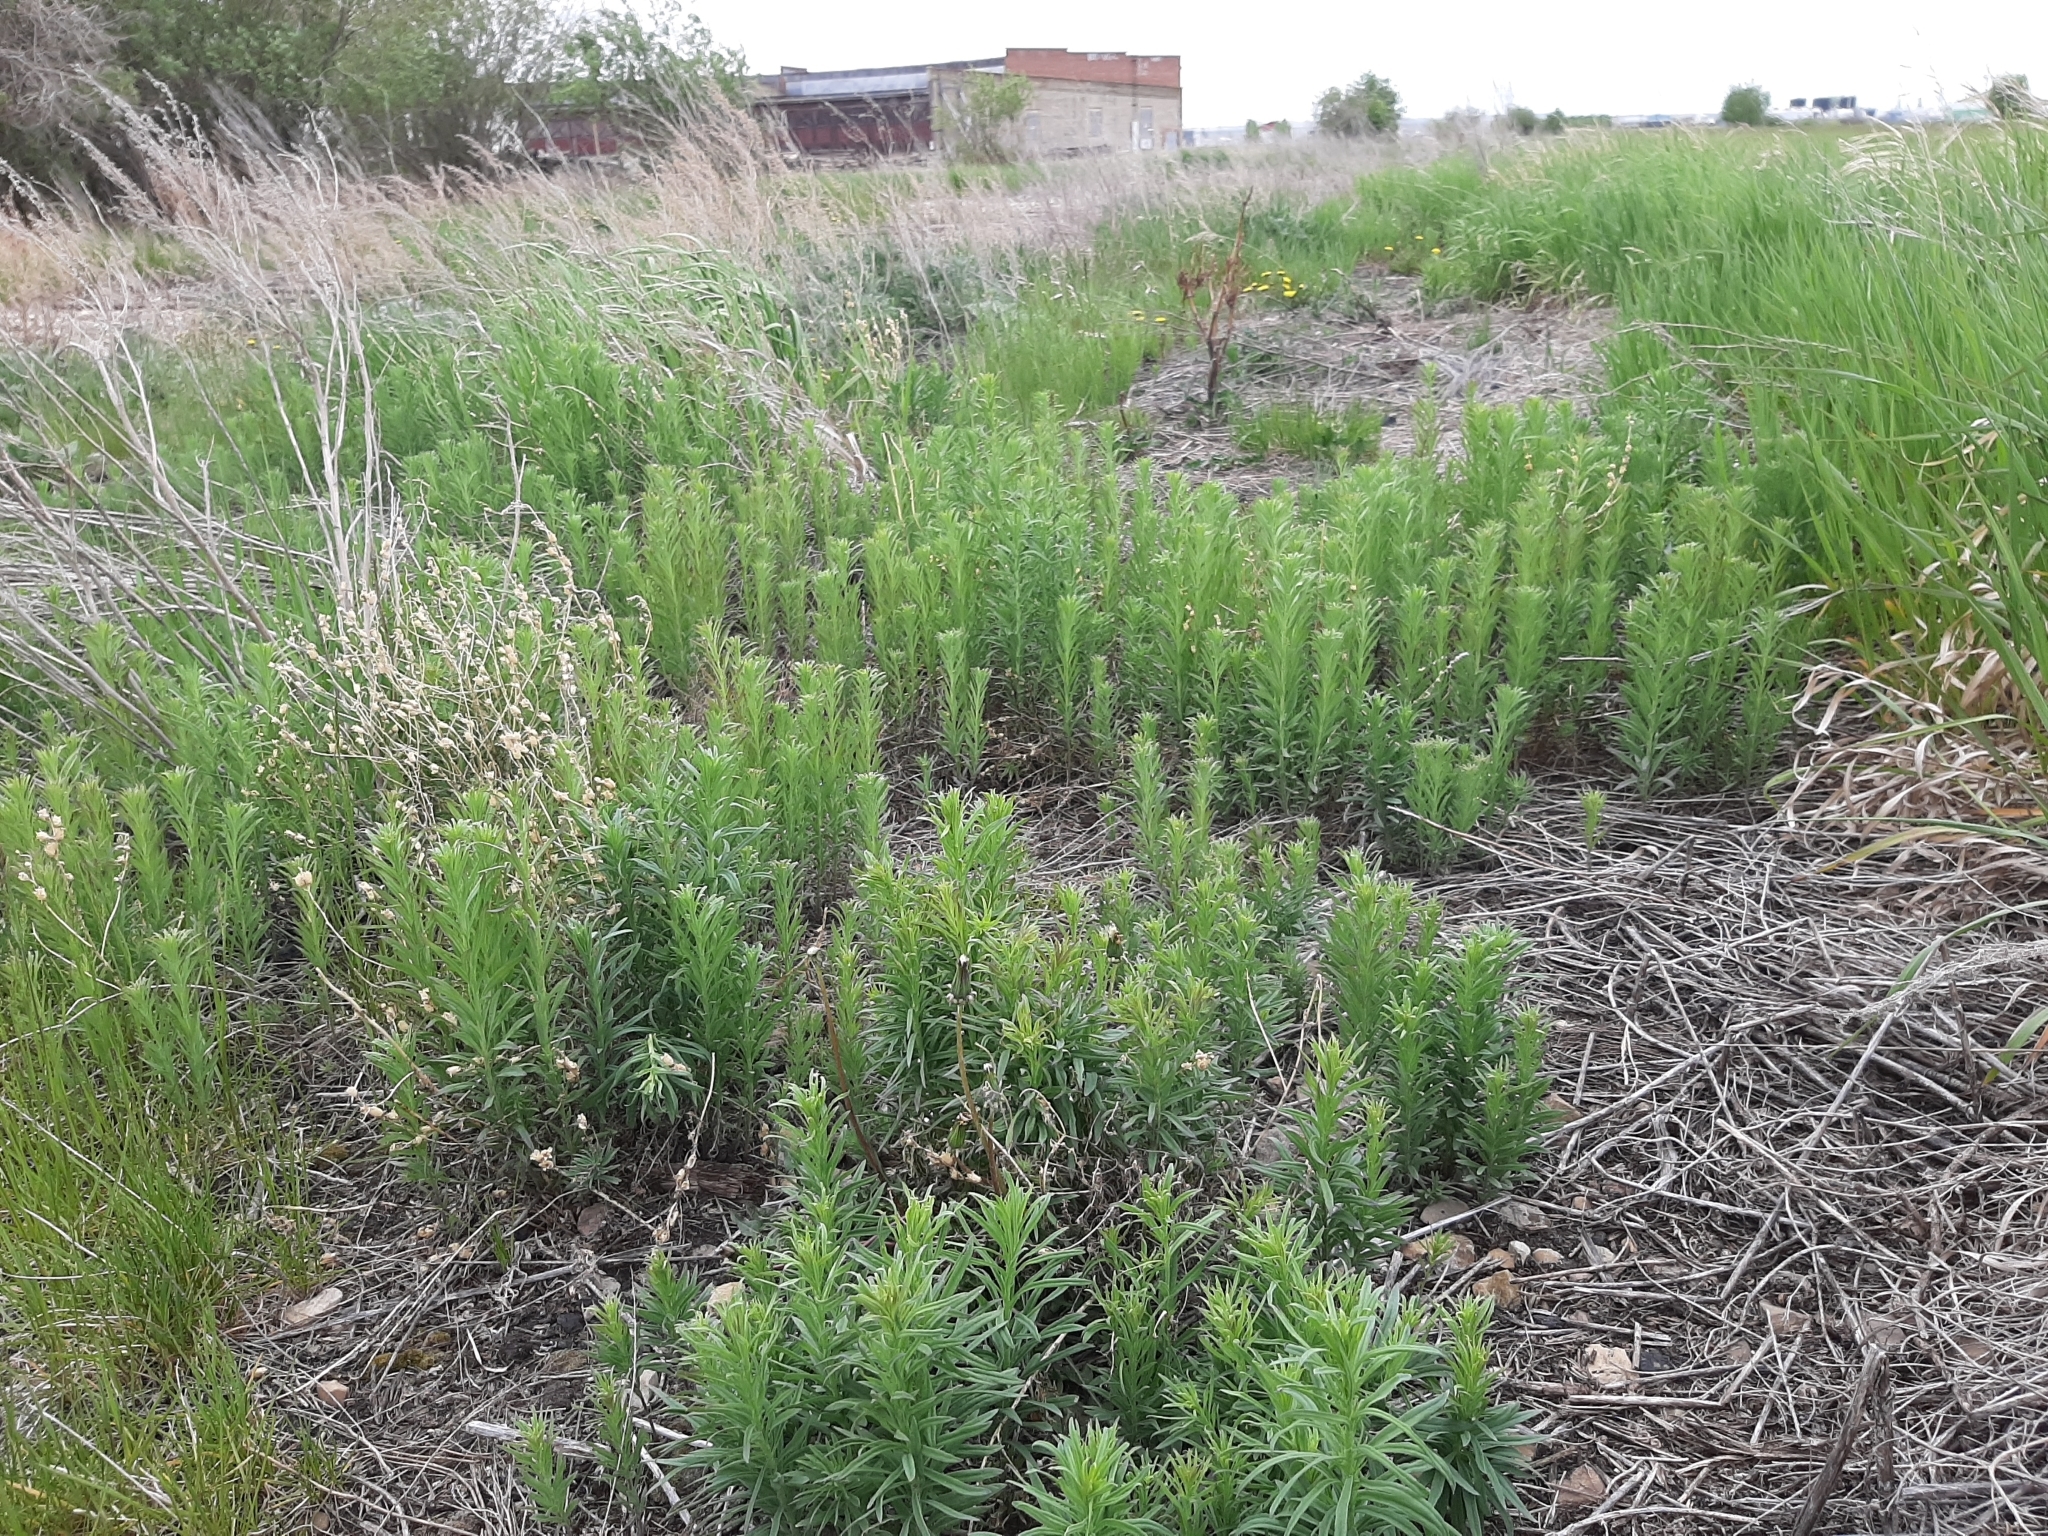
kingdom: Plantae
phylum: Tracheophyta
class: Magnoliopsida
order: Lamiales
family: Plantaginaceae
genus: Linaria
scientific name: Linaria vulgaris
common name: Butter and eggs
